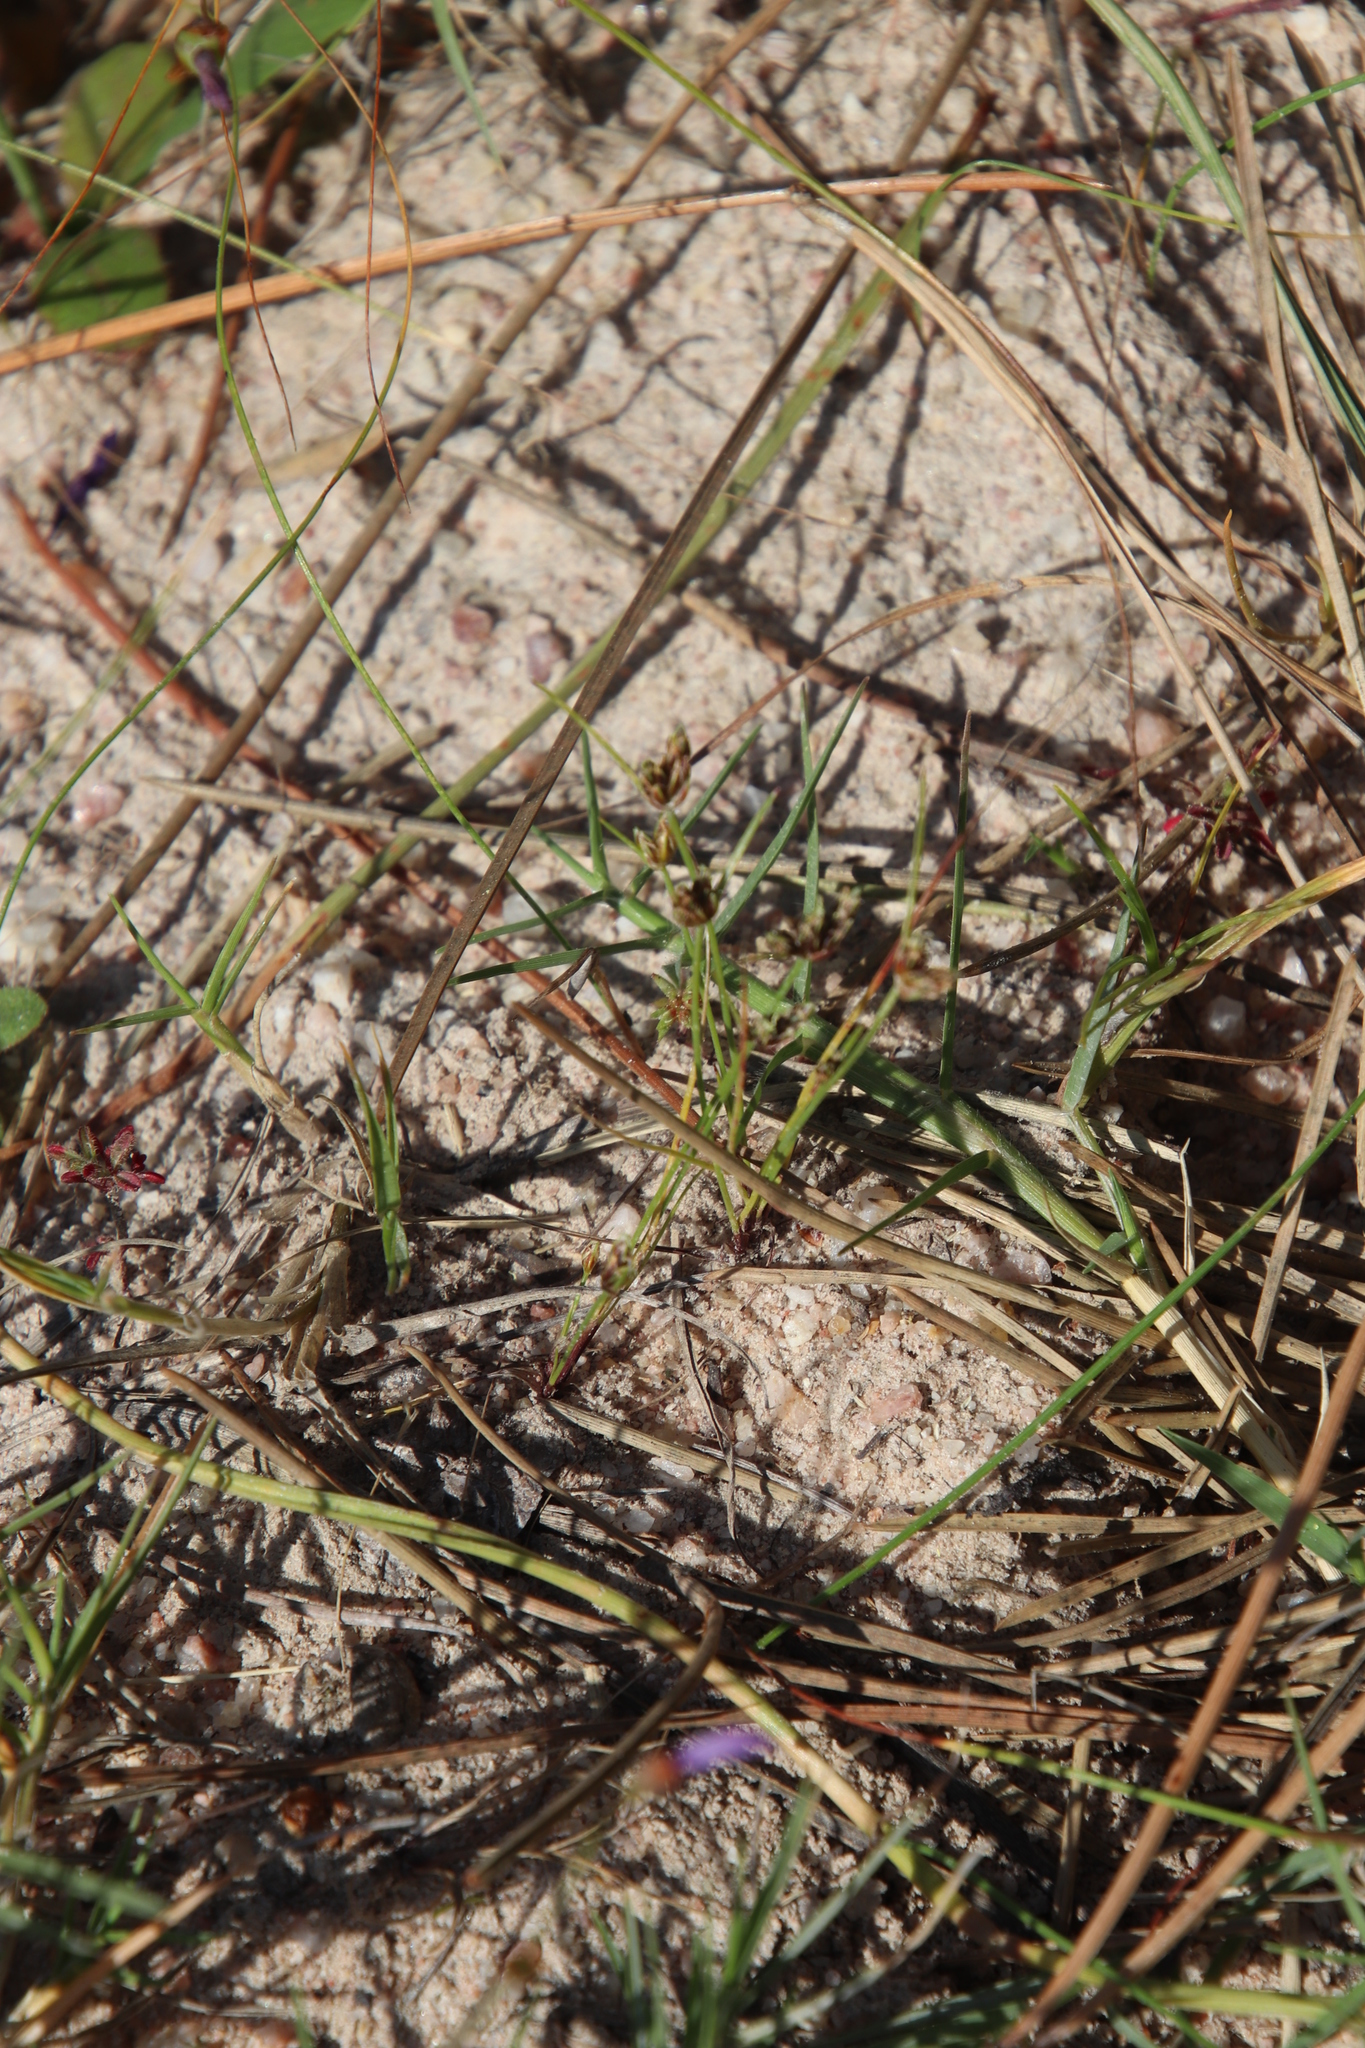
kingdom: Plantae
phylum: Tracheophyta
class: Liliopsida
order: Poales
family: Poaceae
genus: Cynodon
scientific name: Cynodon dactylon
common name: Bermuda grass
